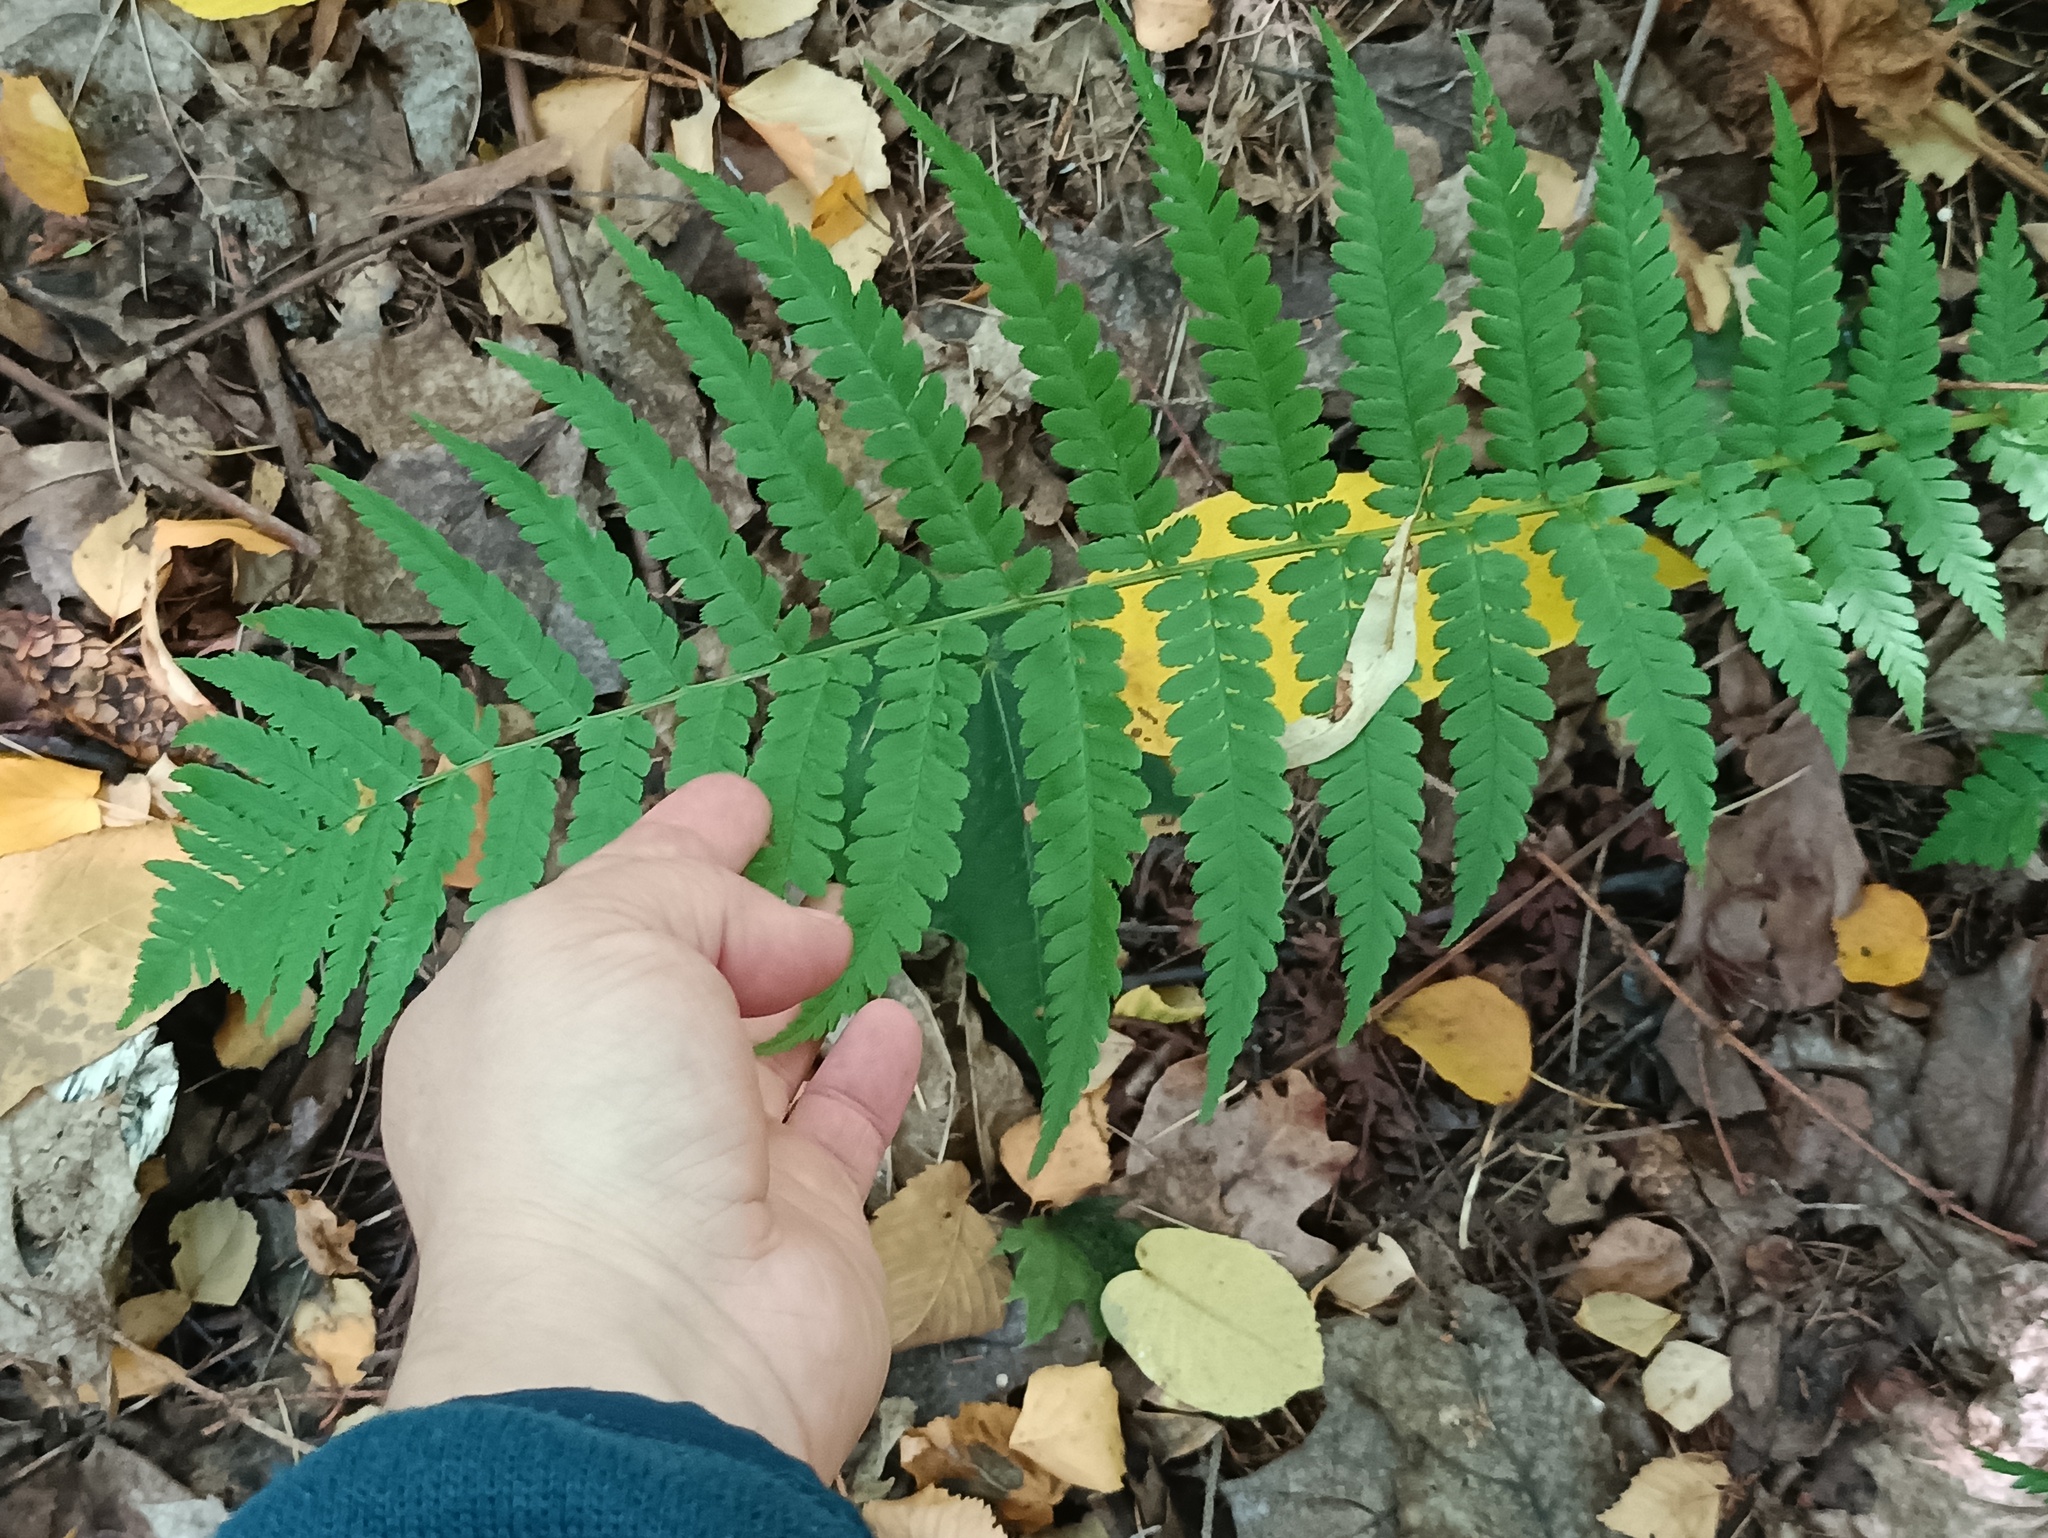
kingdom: Plantae
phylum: Tracheophyta
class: Polypodiopsida
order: Polypodiales
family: Dryopteridaceae
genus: Dryopteris
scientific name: Dryopteris filix-mas
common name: Male fern
